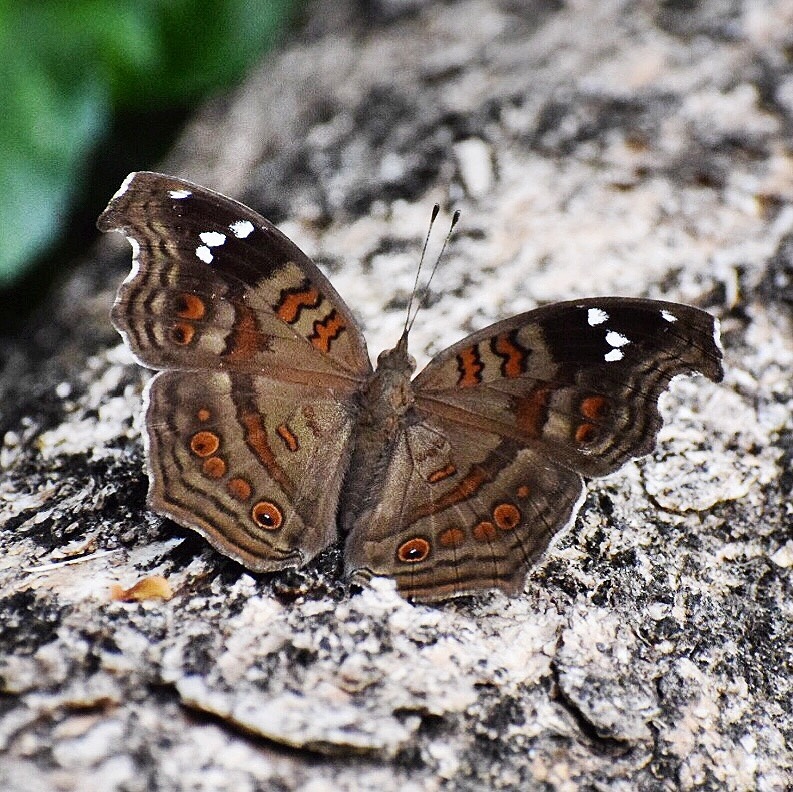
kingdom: Animalia
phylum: Arthropoda
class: Insecta
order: Lepidoptera
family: Nymphalidae
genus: Junonia
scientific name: Junonia natalica
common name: Brown pansy
